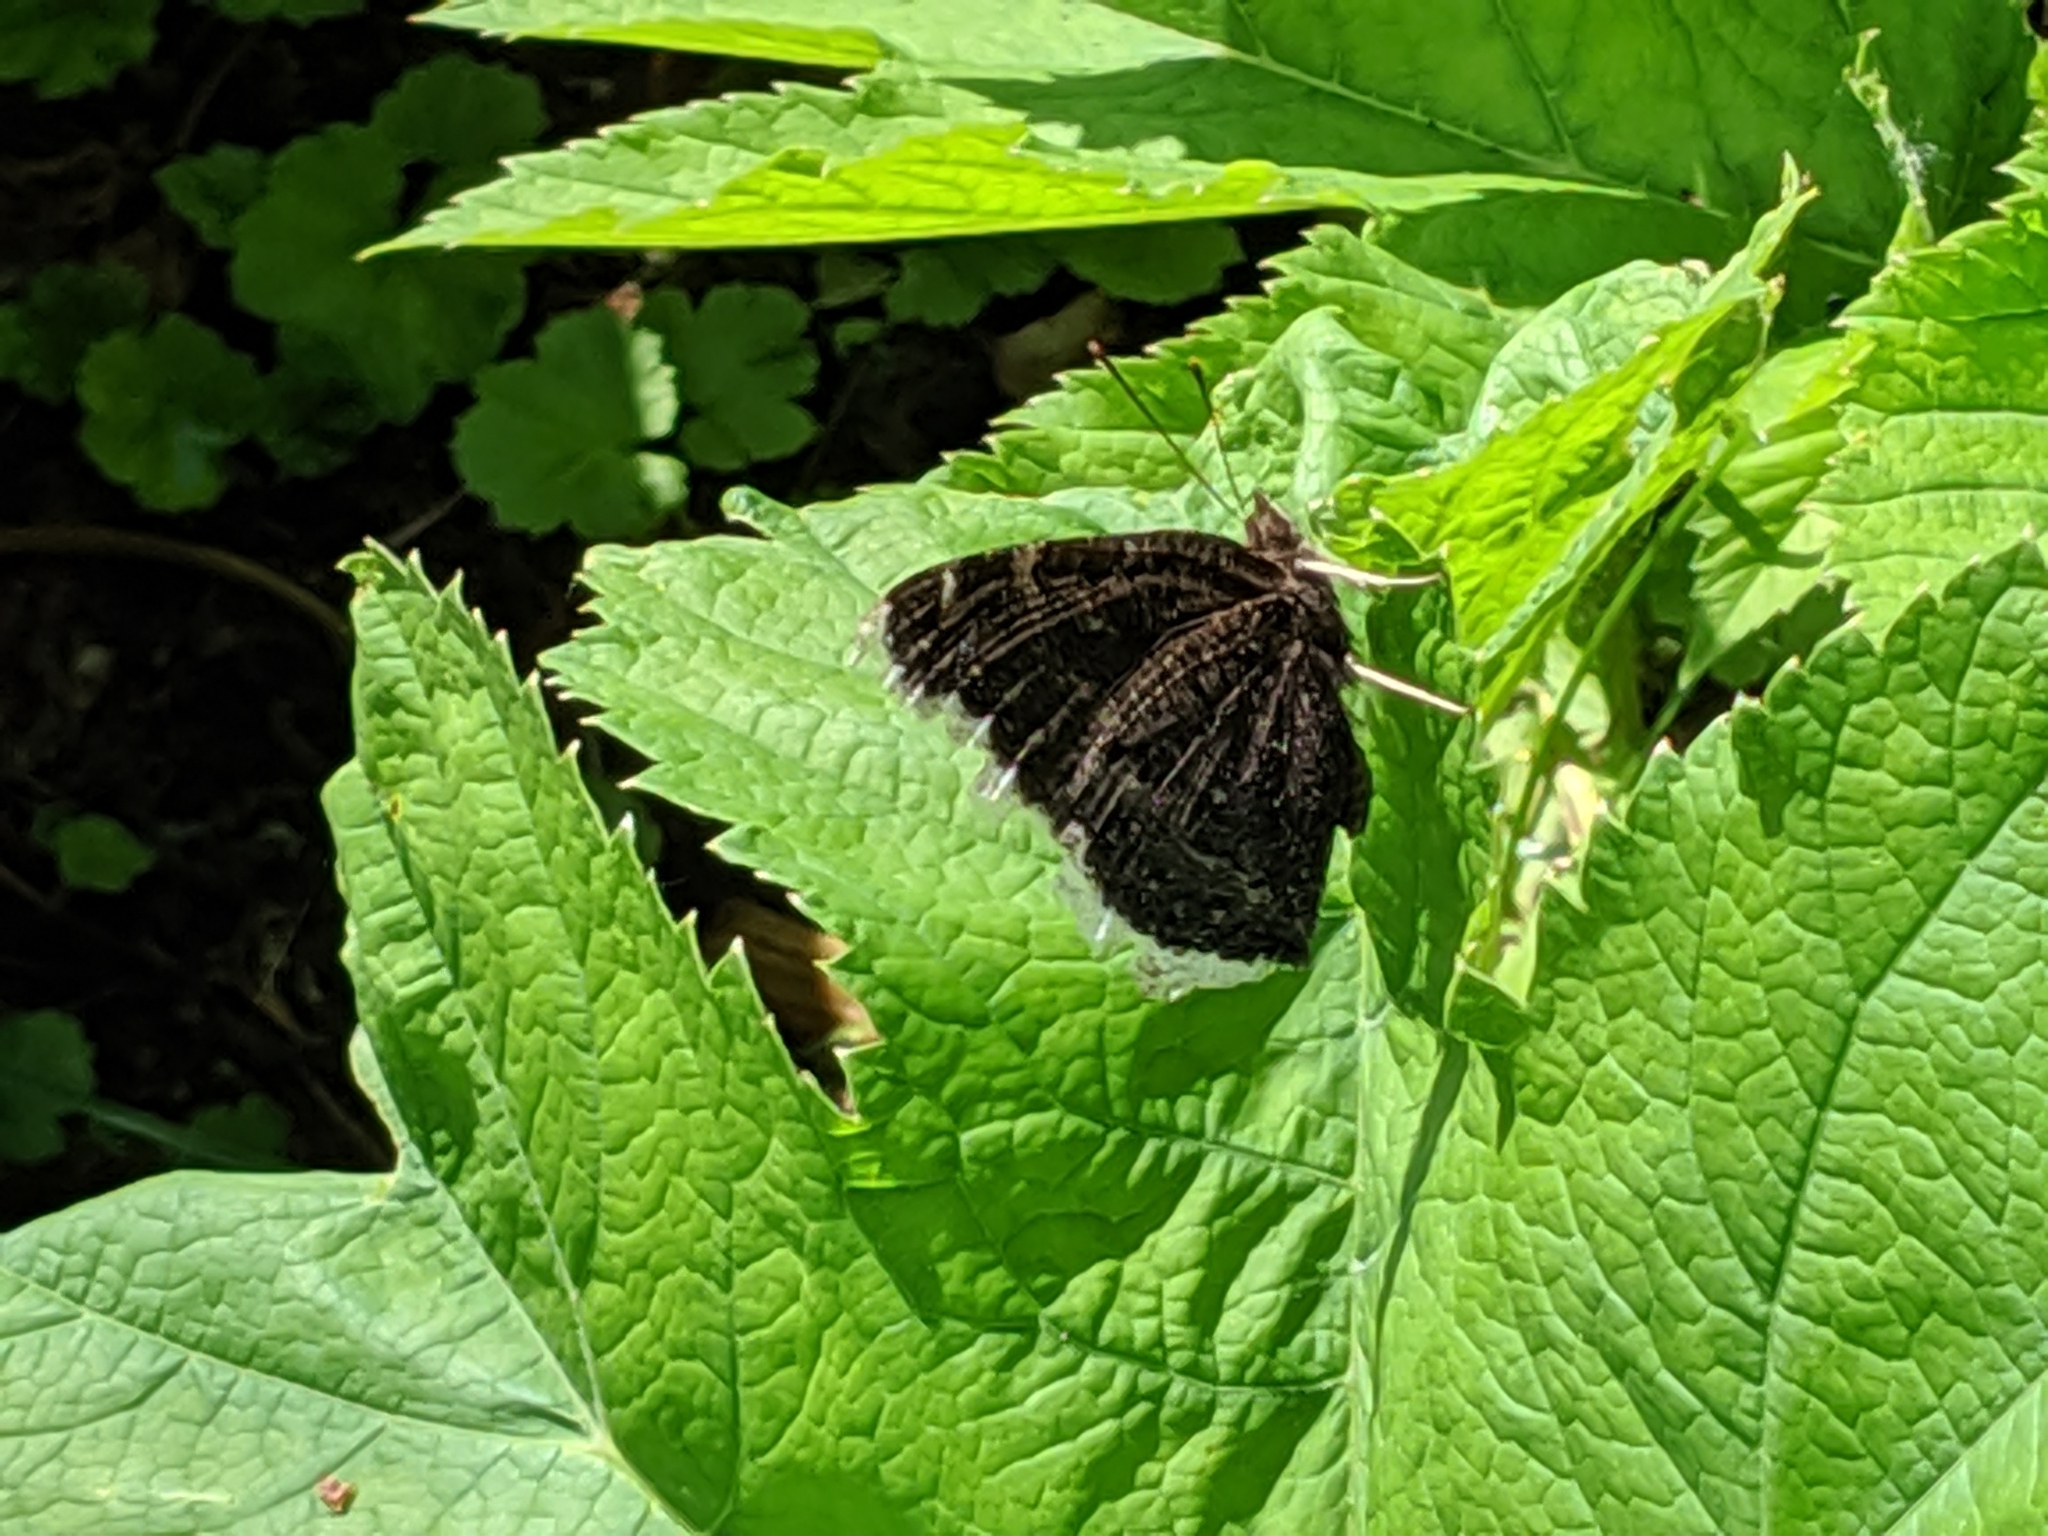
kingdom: Animalia
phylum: Arthropoda
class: Insecta
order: Lepidoptera
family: Nymphalidae
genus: Nymphalis
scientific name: Nymphalis antiopa
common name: Camberwell beauty
